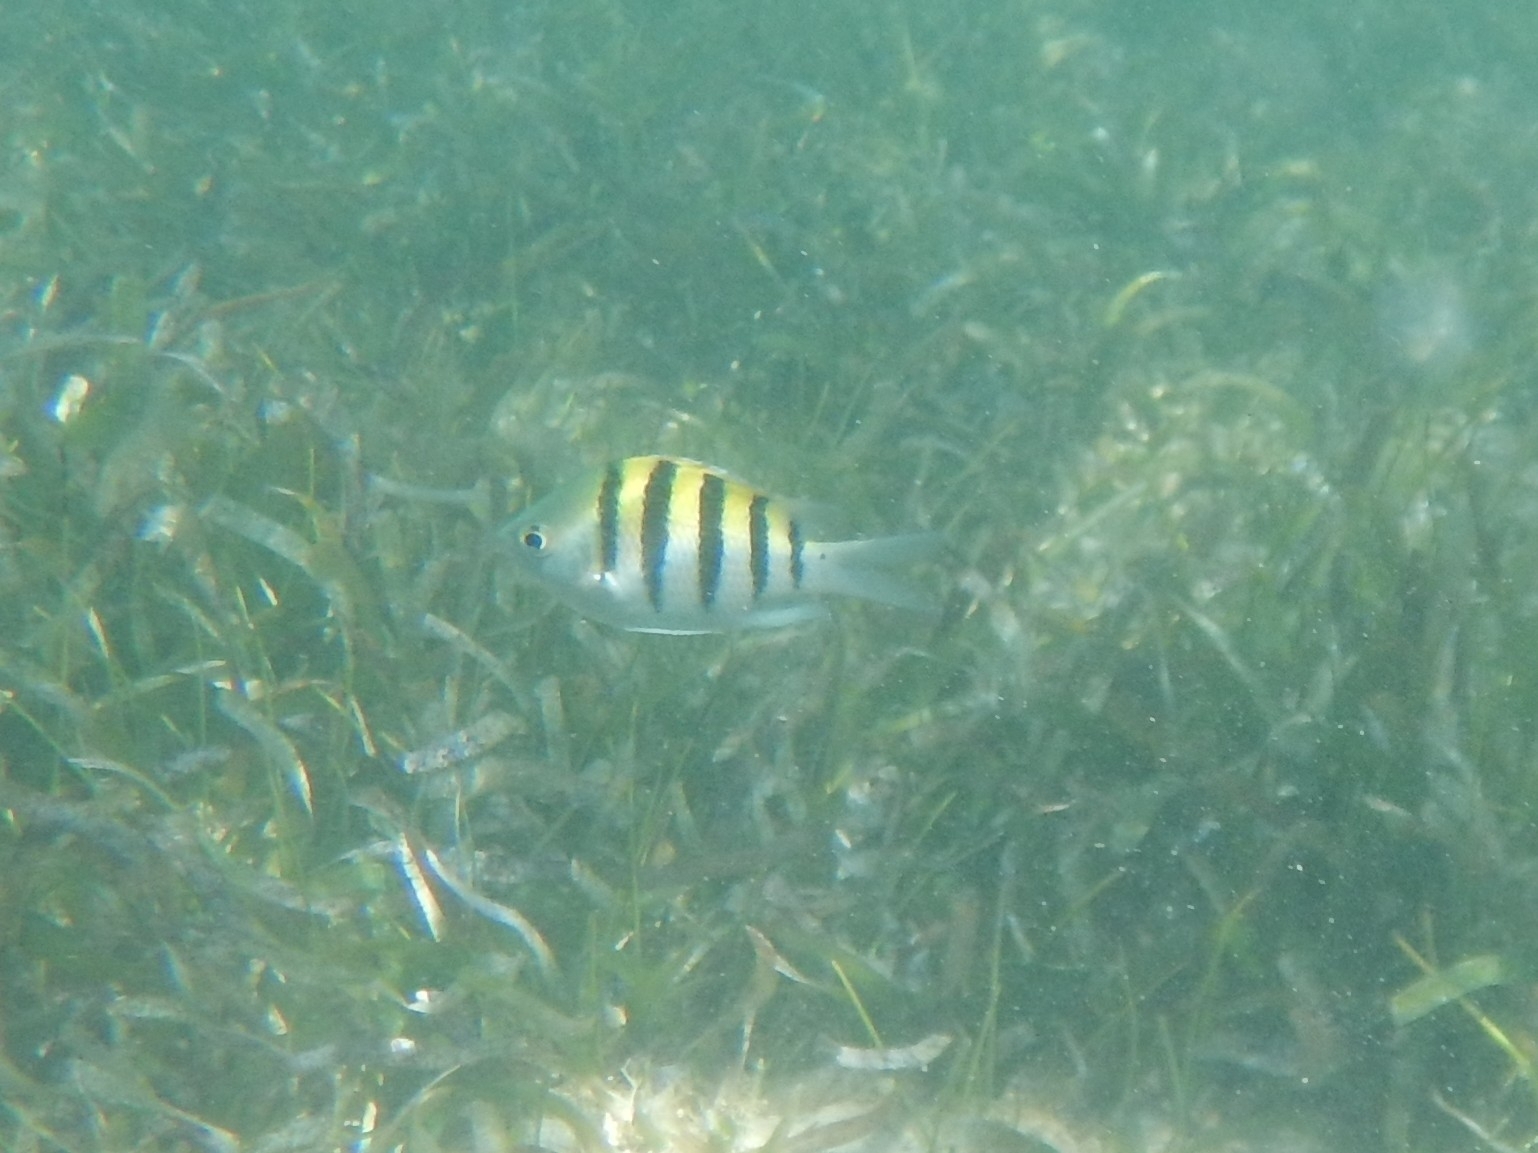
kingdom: Animalia
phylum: Chordata
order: Perciformes
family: Pomacentridae
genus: Abudefduf
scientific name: Abudefduf saxatilis
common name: Sergeant major
